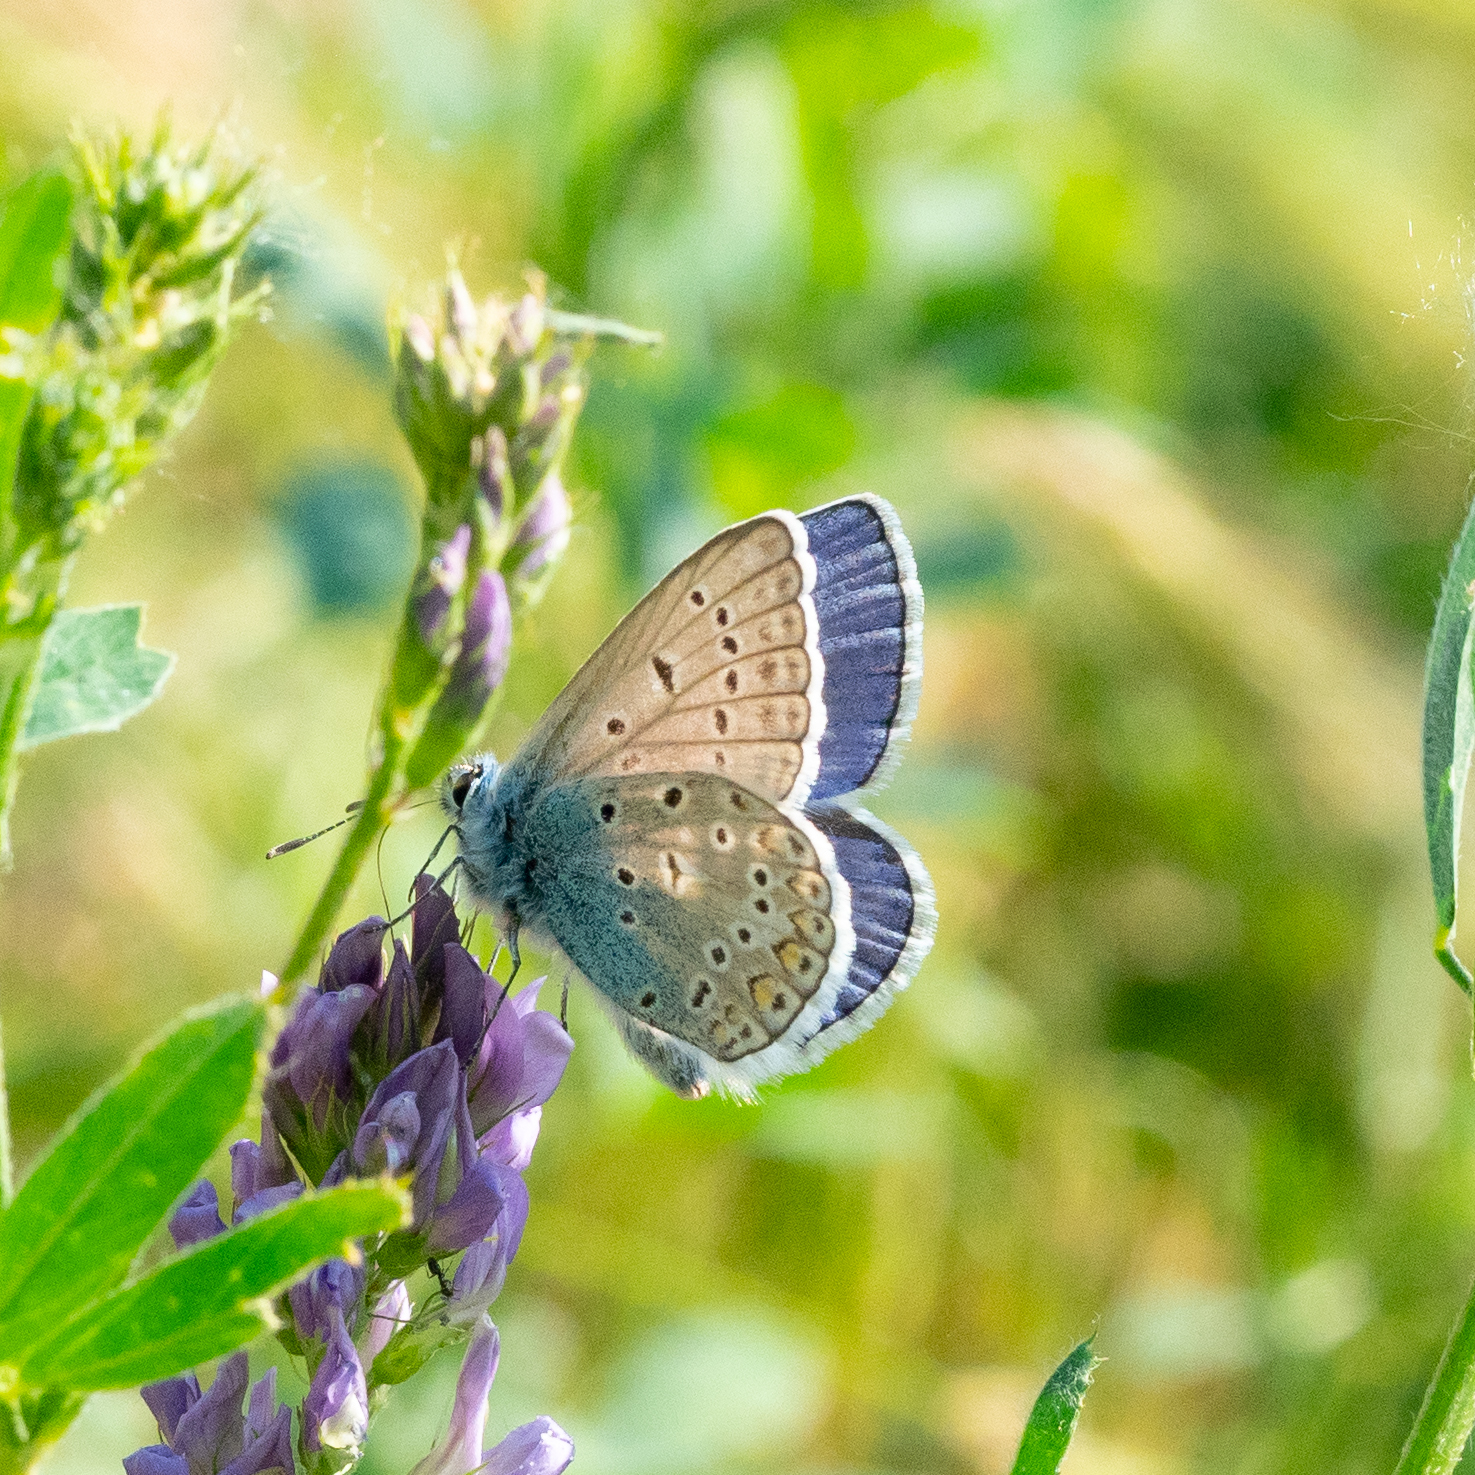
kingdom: Animalia
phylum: Arthropoda
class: Insecta
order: Lepidoptera
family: Lycaenidae
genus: Polyommatus
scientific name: Polyommatus icarus
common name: Common blue
